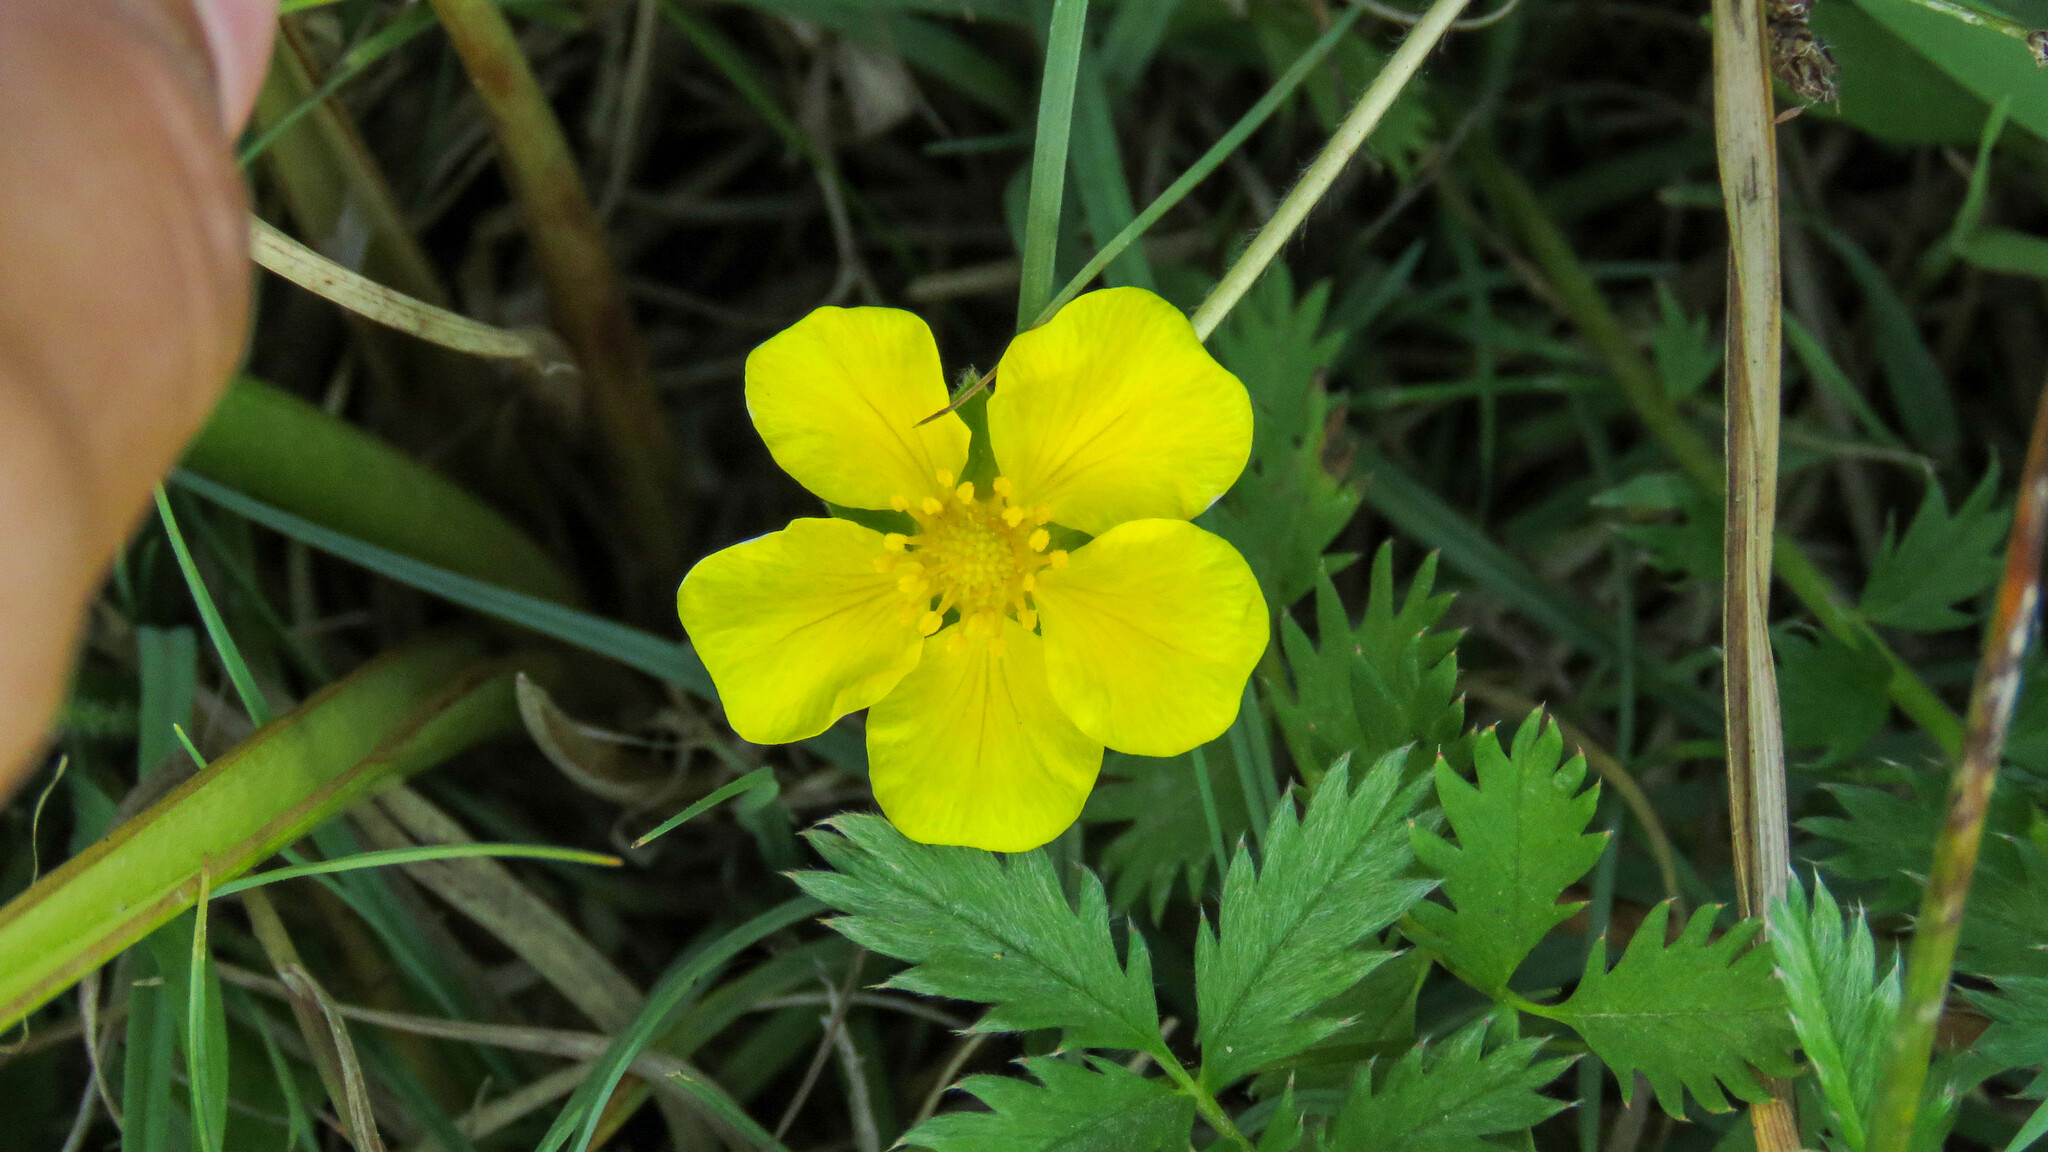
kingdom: Plantae
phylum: Tracheophyta
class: Magnoliopsida
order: Rosales
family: Rosaceae
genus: Argentina
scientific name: Argentina anserina
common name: Common silverweed
